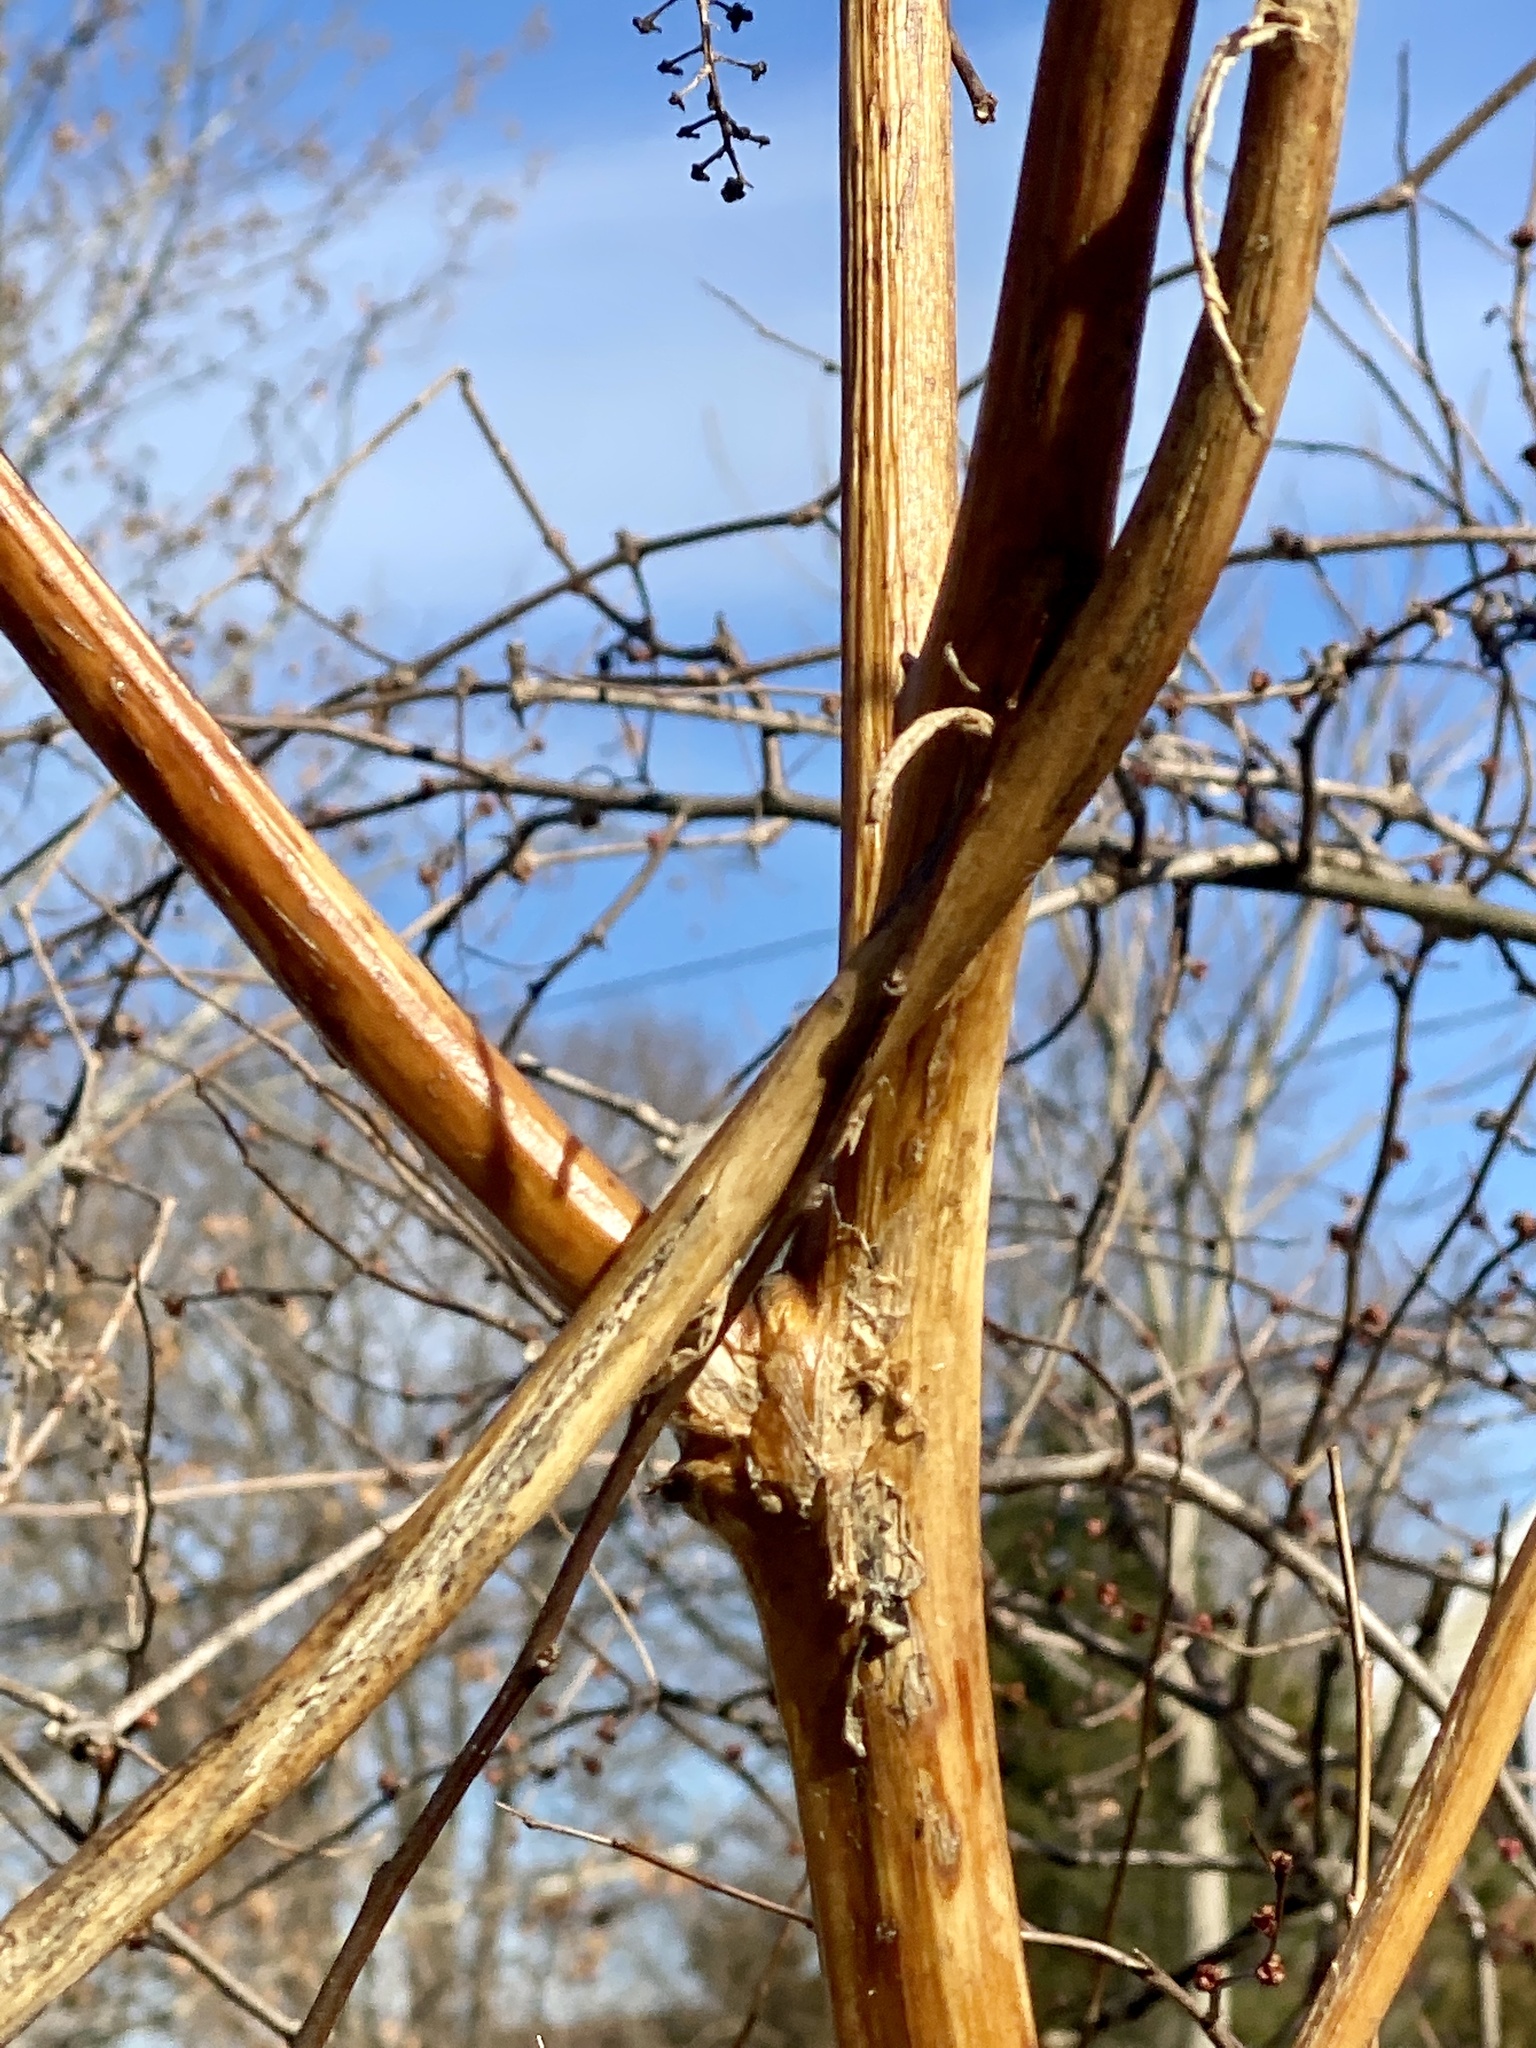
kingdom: Plantae
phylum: Tracheophyta
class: Magnoliopsida
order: Caryophyllales
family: Phytolaccaceae
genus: Phytolacca
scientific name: Phytolacca americana
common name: American pokeweed
